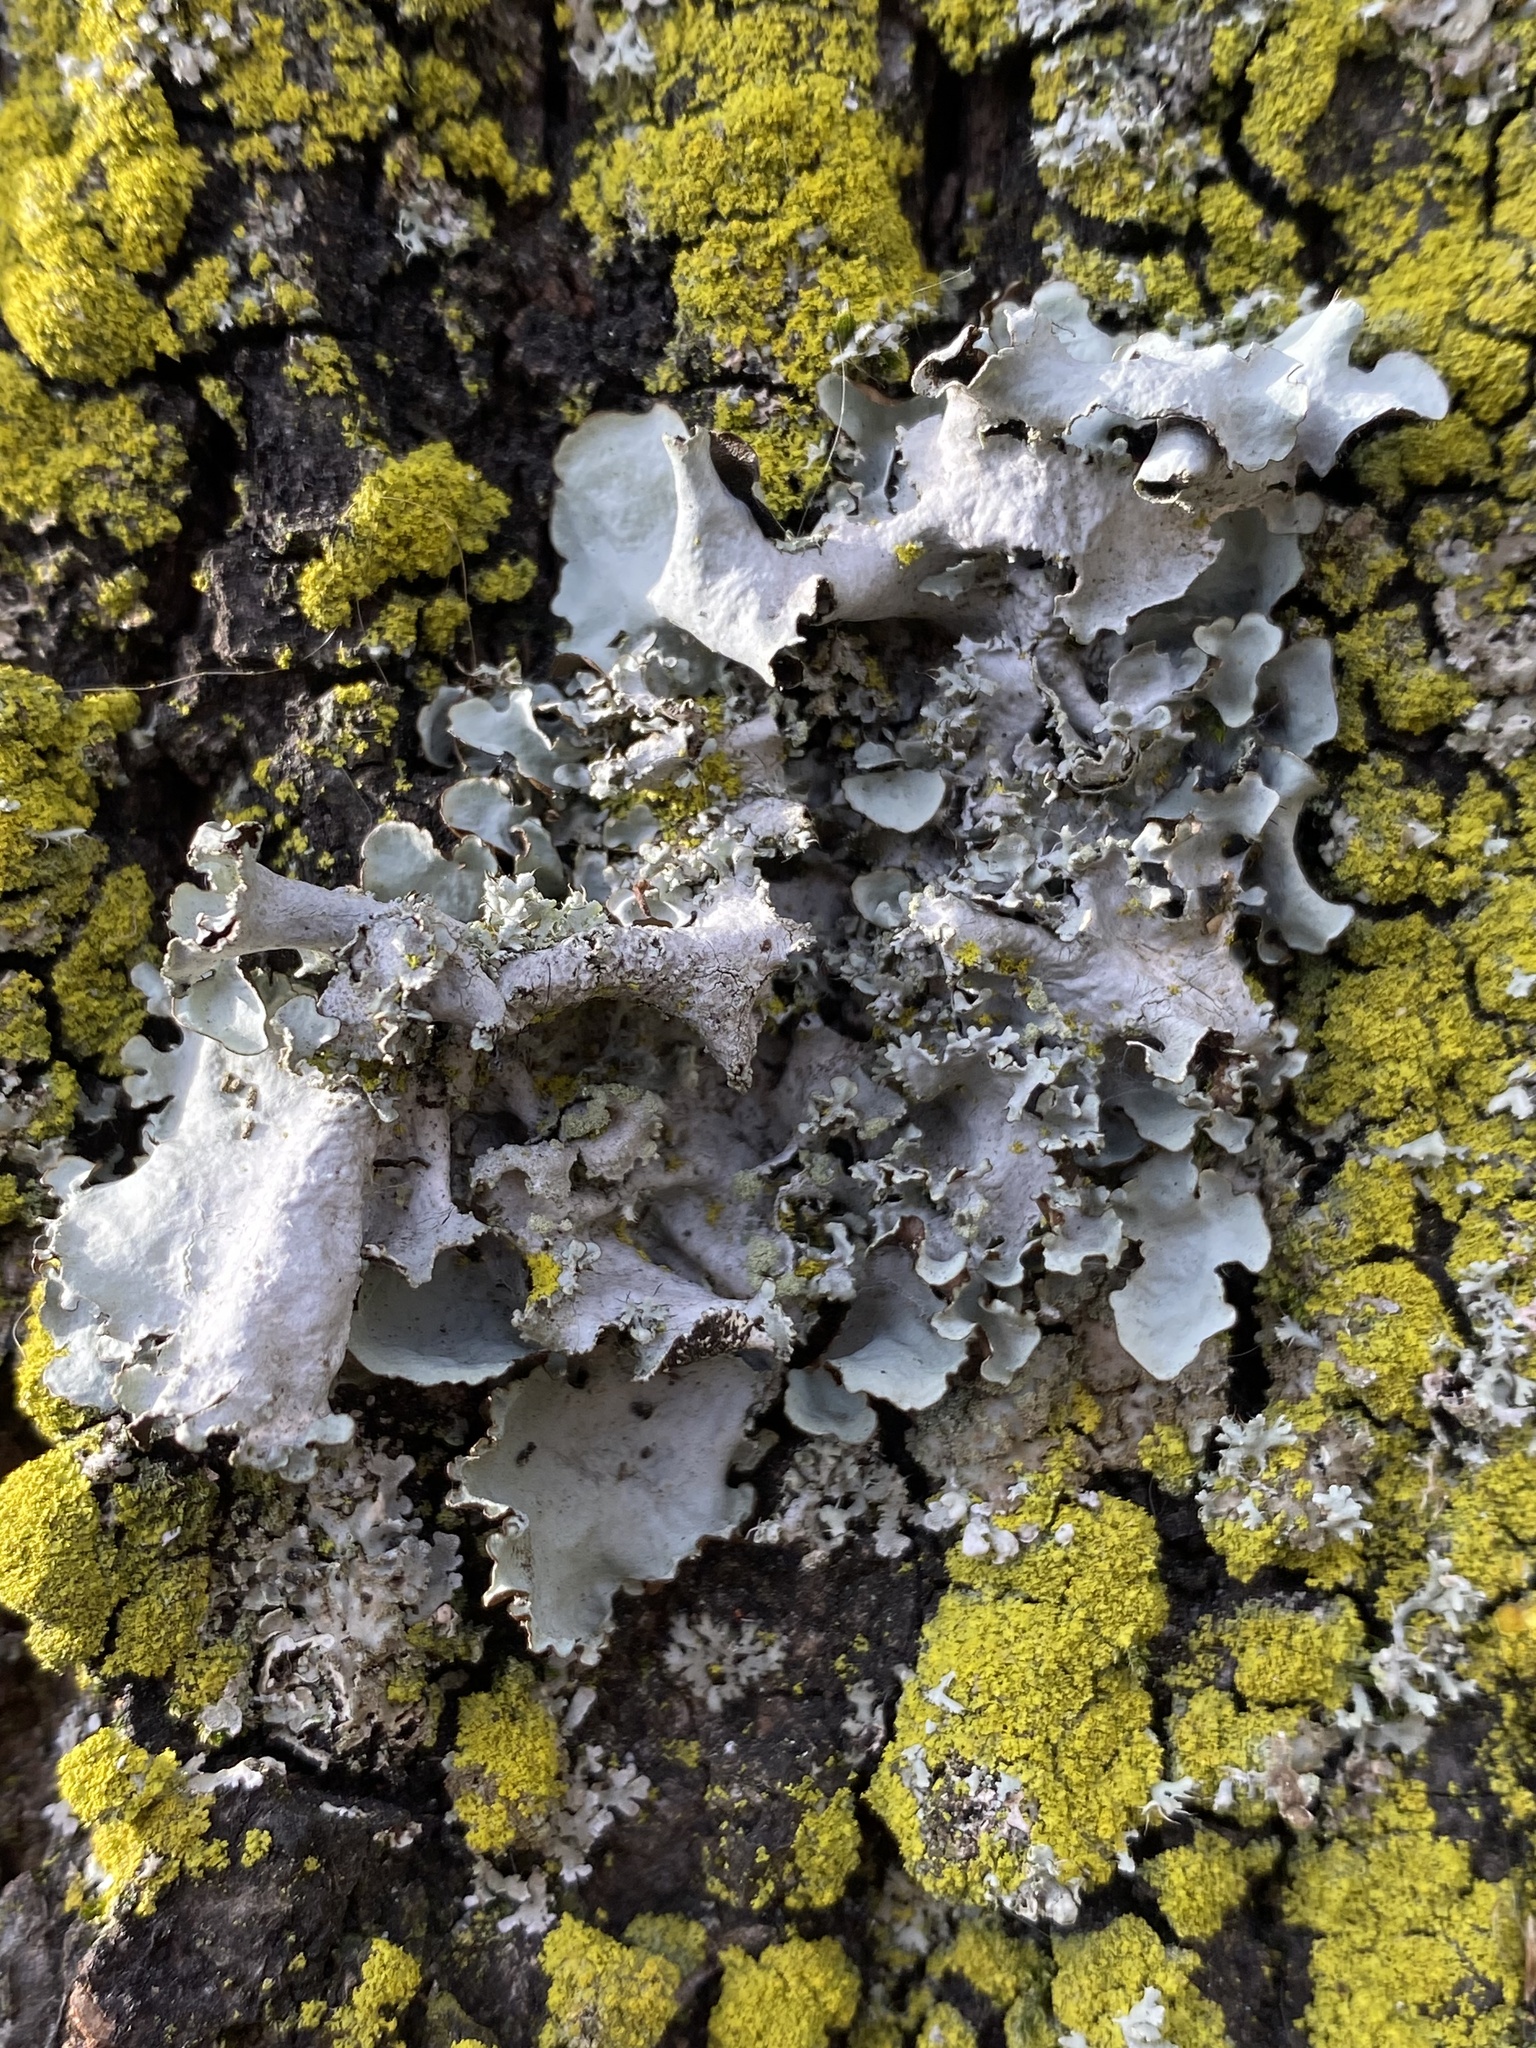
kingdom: Fungi
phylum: Ascomycota
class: Lecanoromycetes
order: Lecanorales
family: Parmeliaceae
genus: Parmotrema
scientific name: Parmotrema perlatum
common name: Black stone flower
